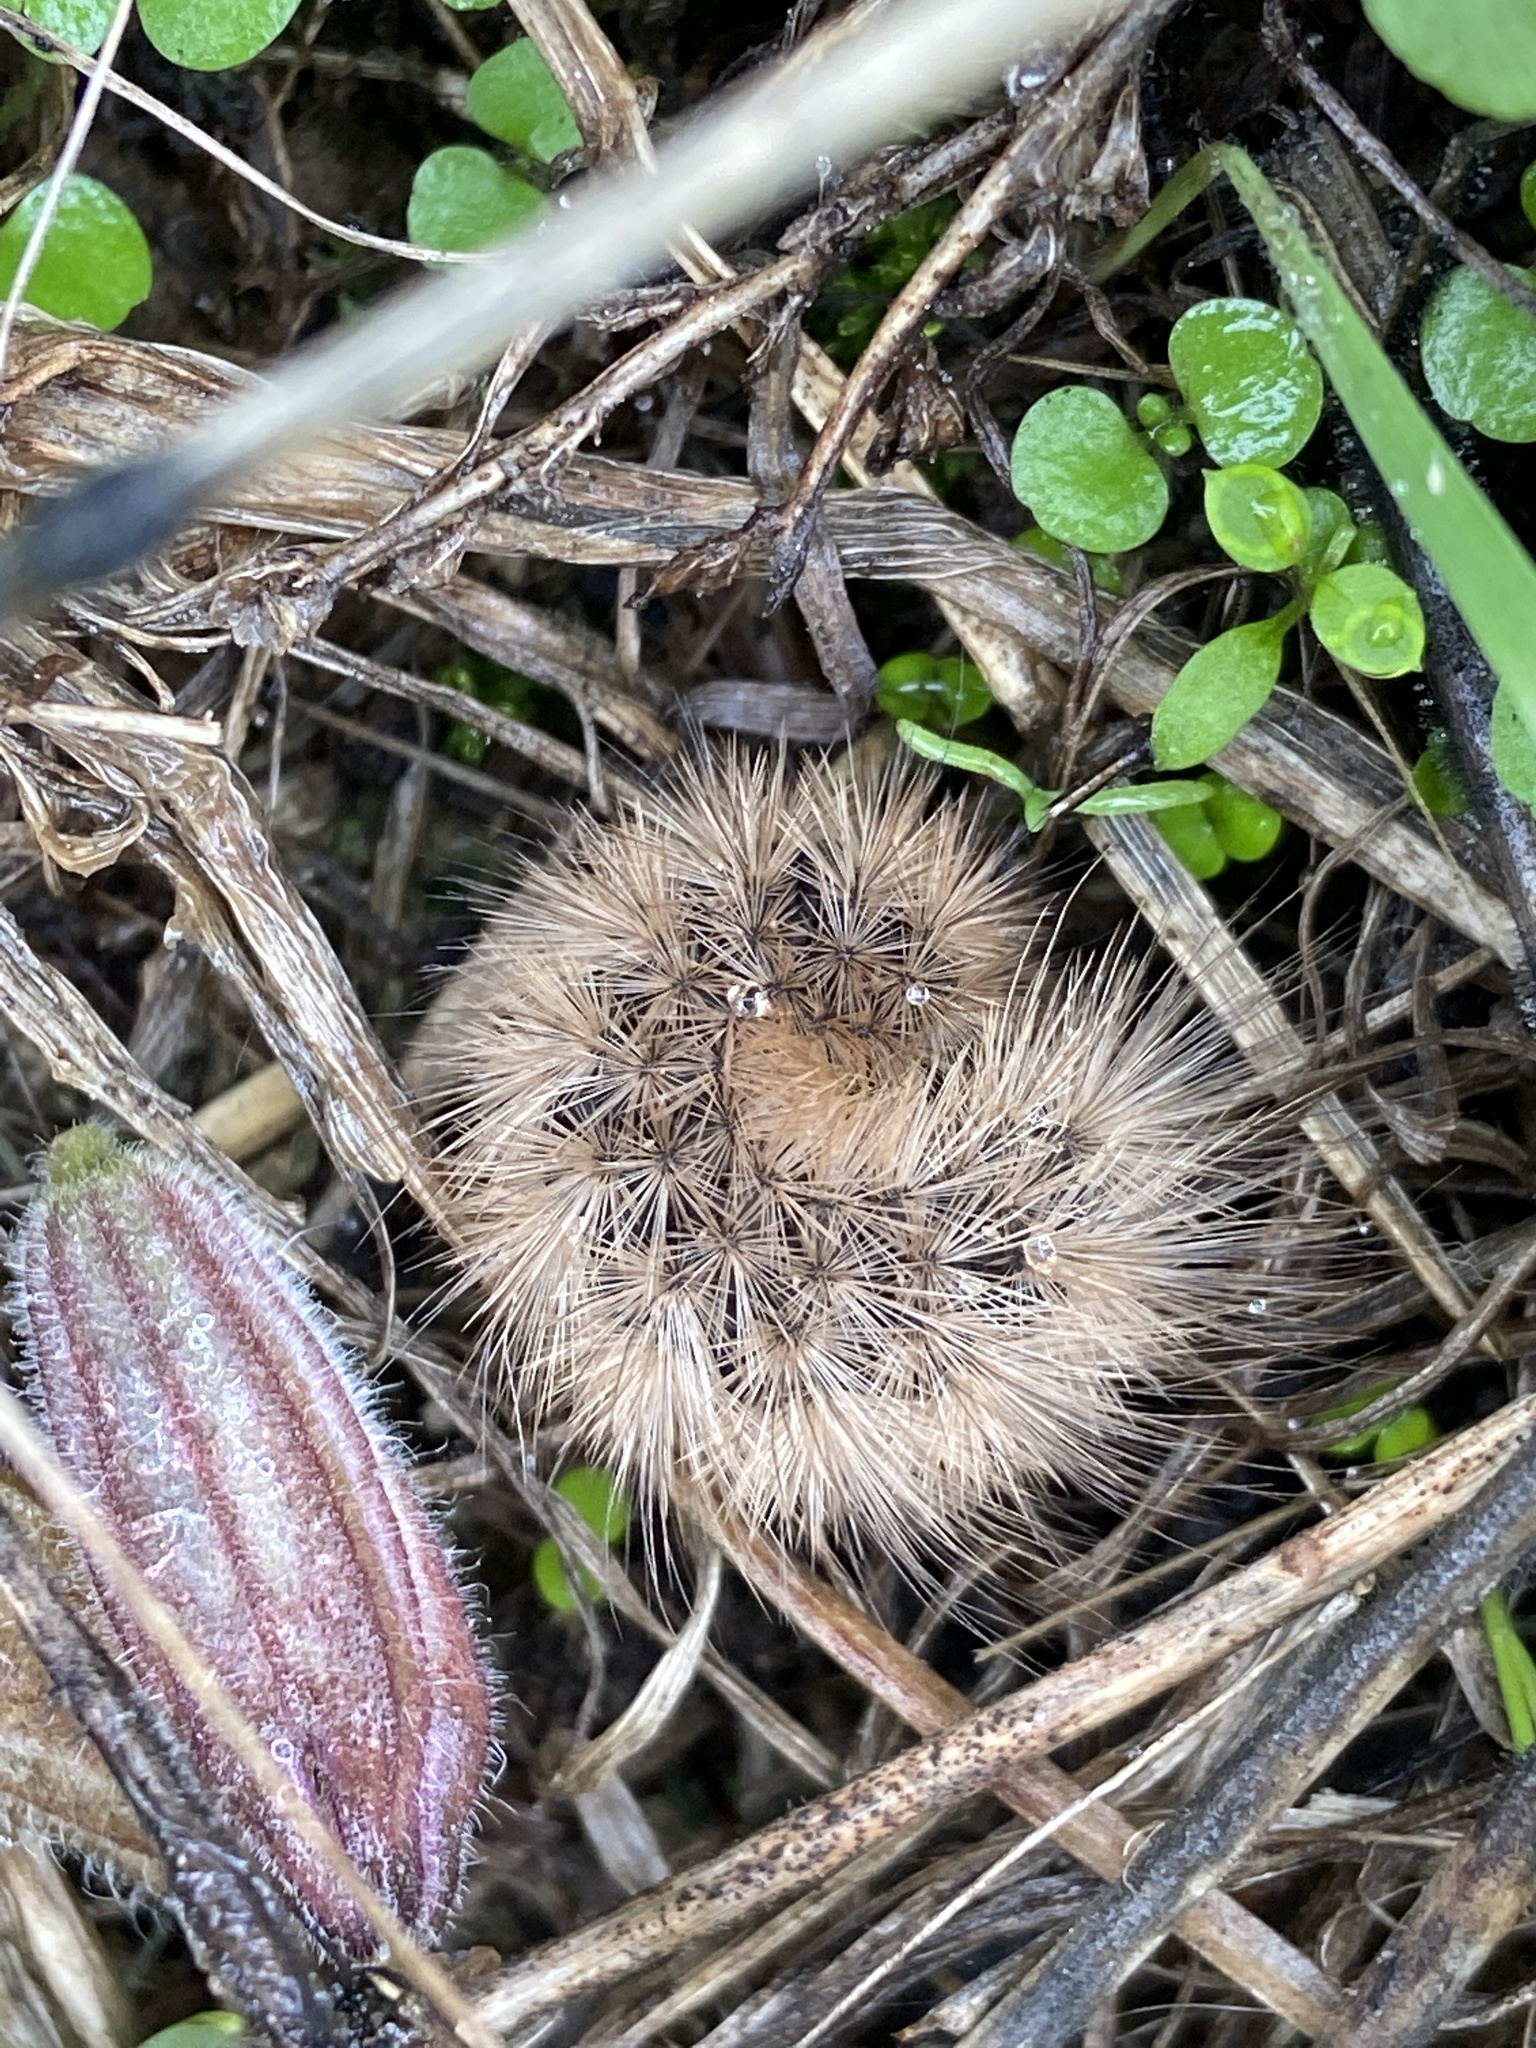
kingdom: Animalia
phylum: Arthropoda
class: Insecta
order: Lepidoptera
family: Erebidae
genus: Phragmatobia
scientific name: Phragmatobia fuliginosa
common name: Ruby tiger
